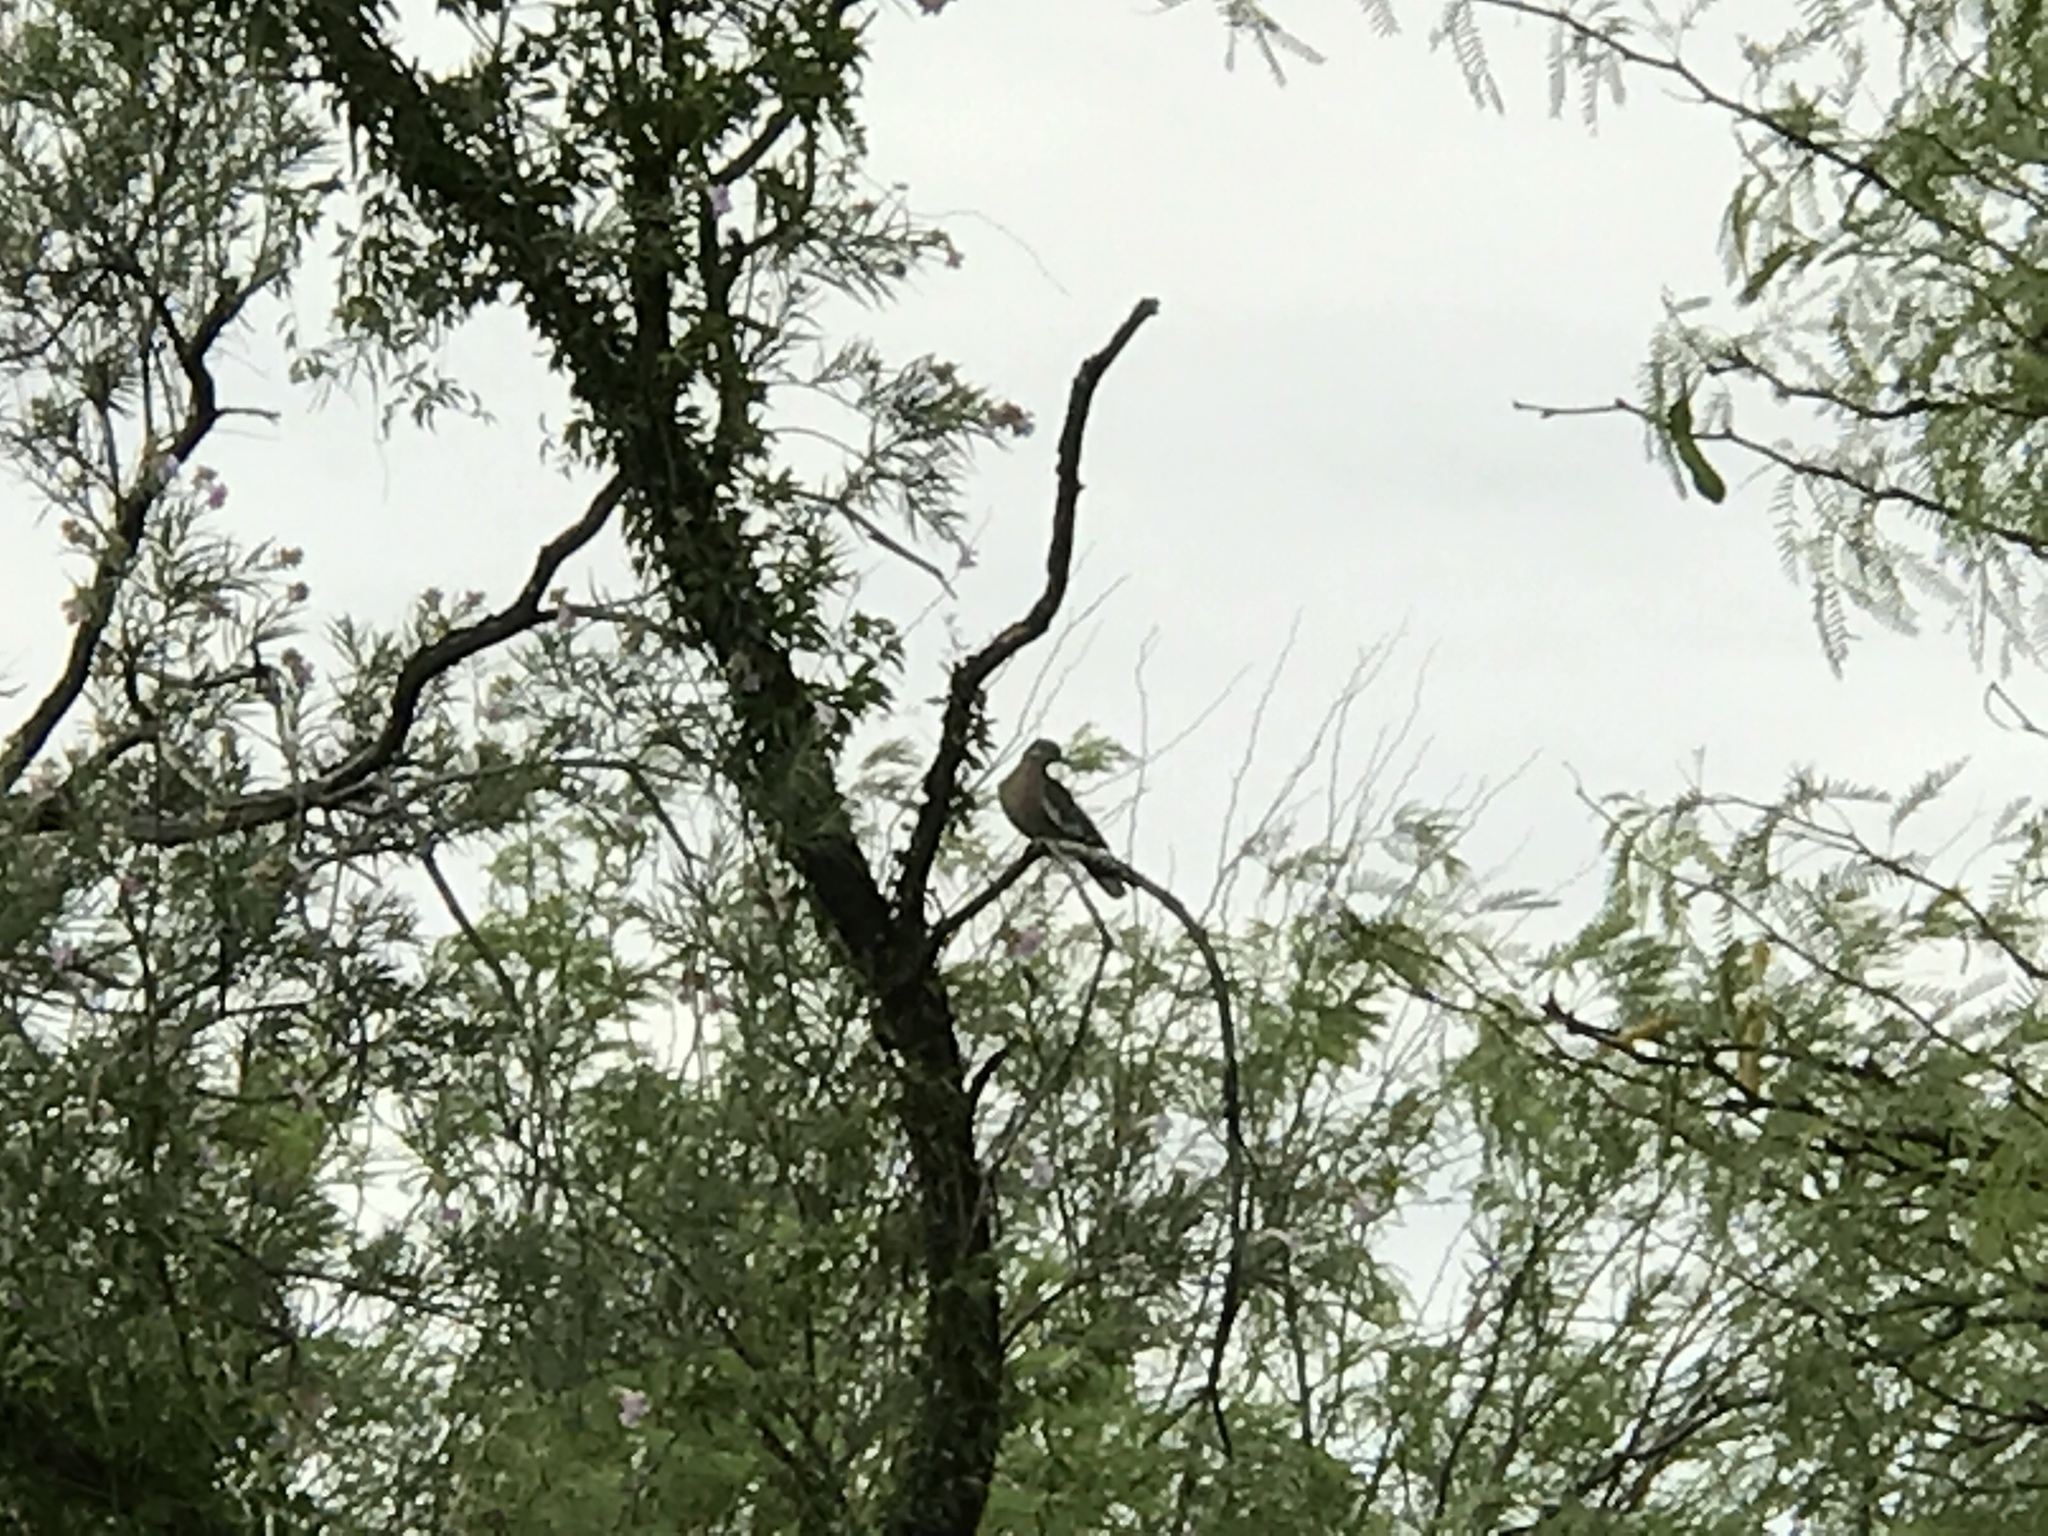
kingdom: Animalia
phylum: Chordata
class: Aves
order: Columbiformes
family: Columbidae
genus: Zenaida
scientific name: Zenaida asiatica
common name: White-winged dove
